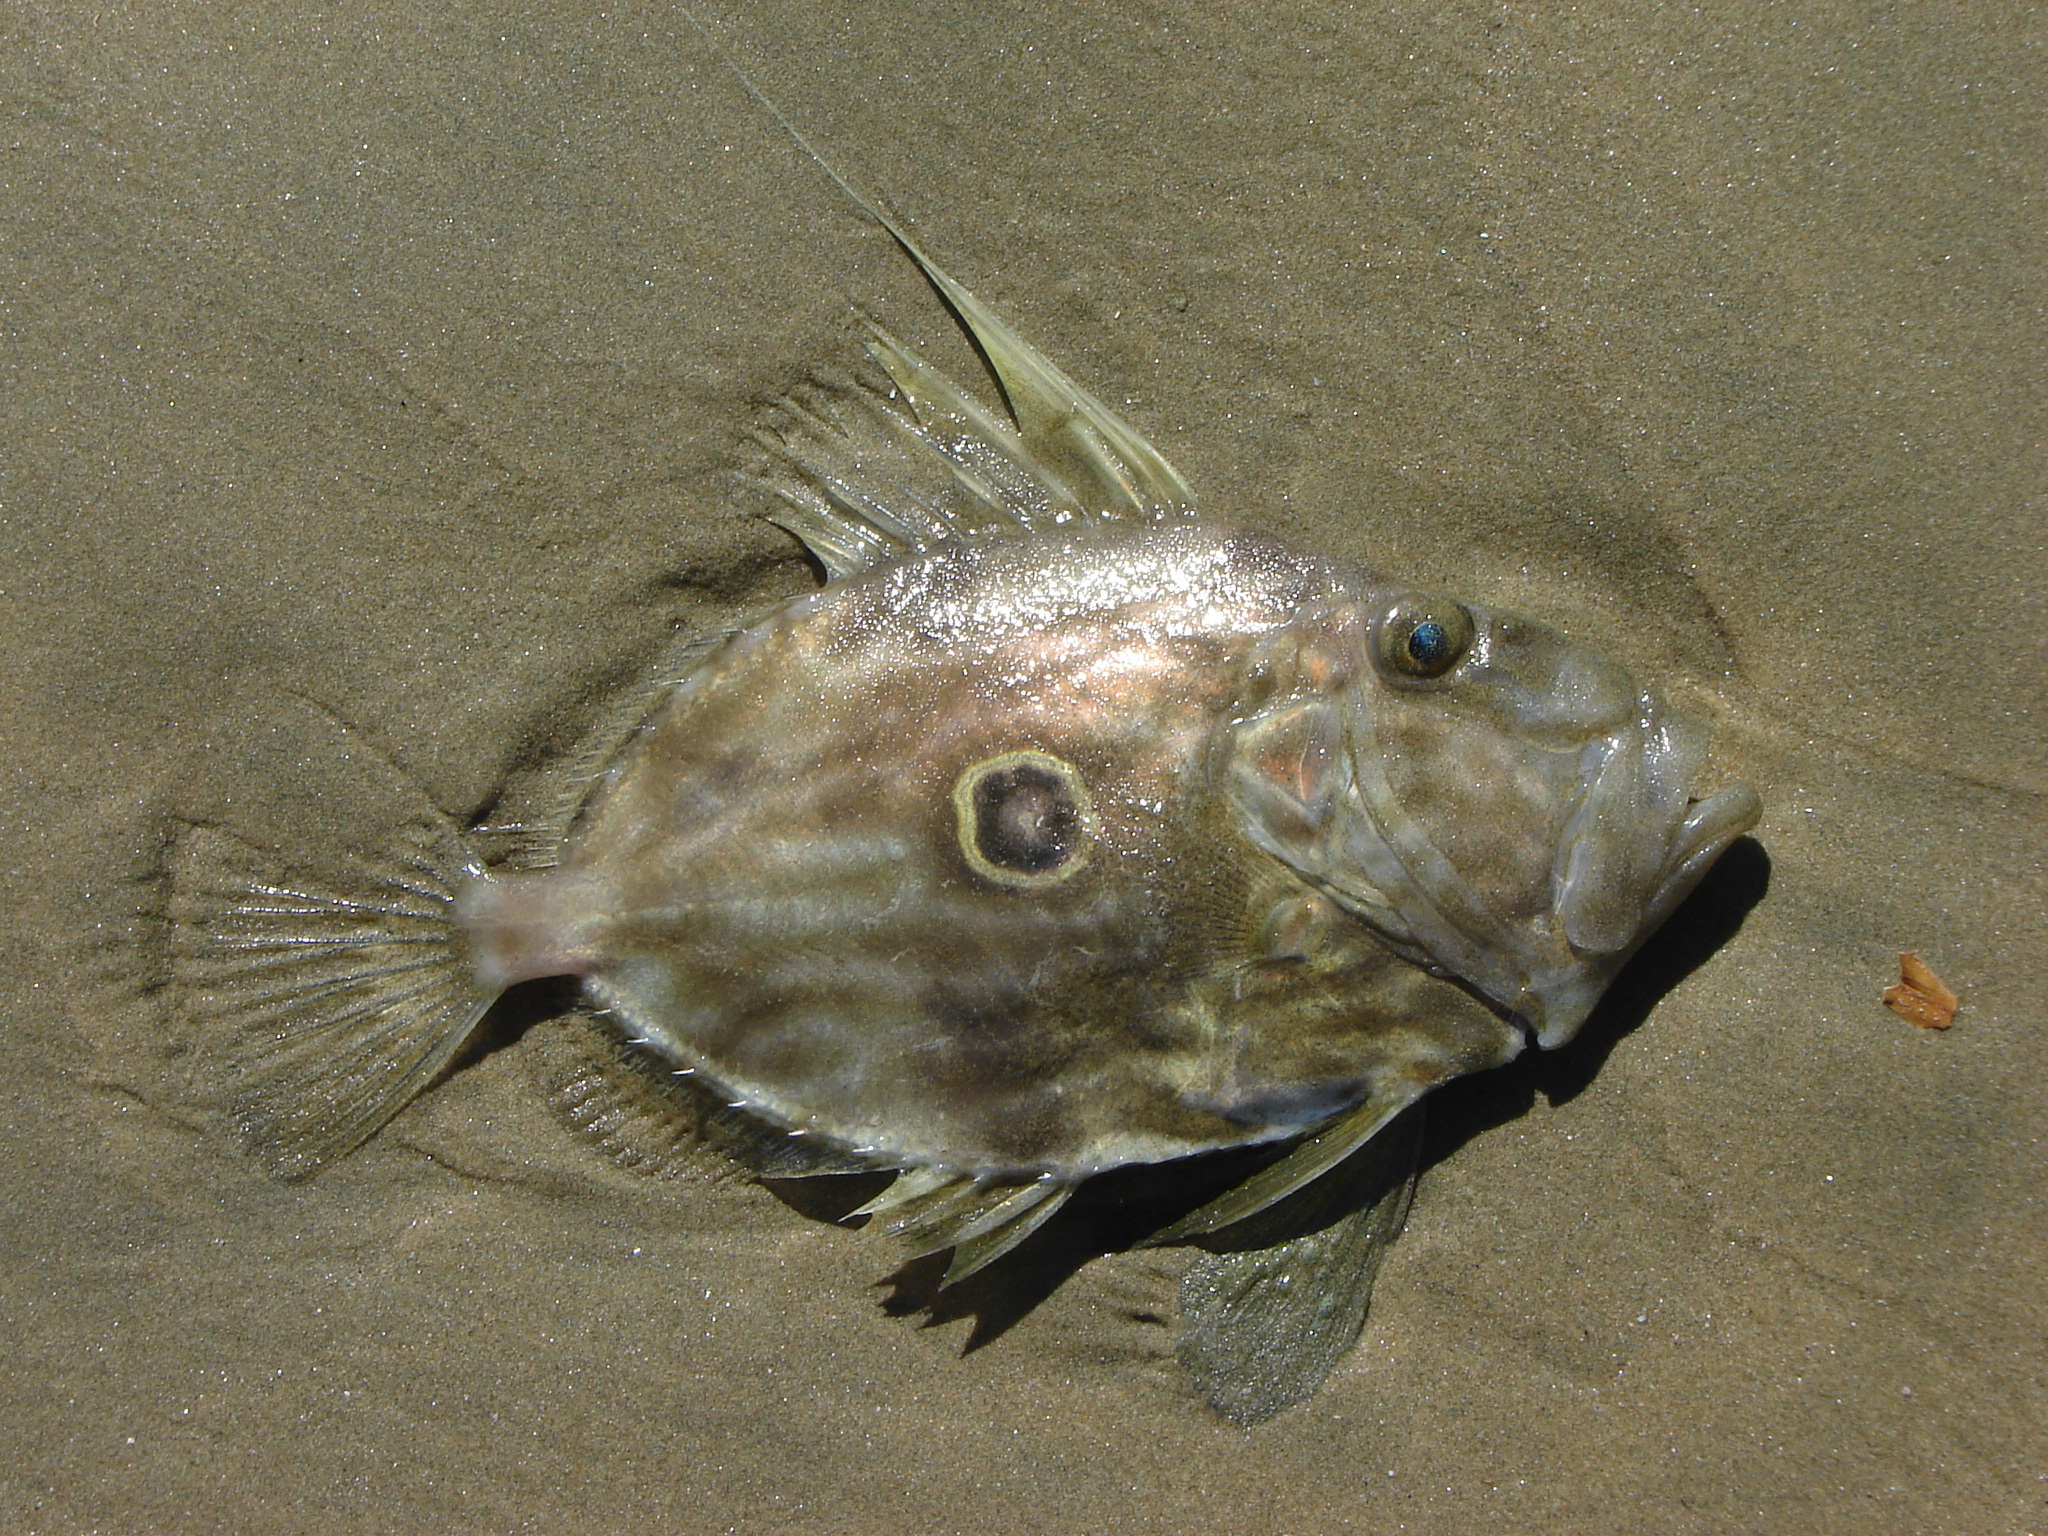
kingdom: Animalia
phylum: Chordata
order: Zeiformes
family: Zeidae
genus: Zeus
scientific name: Zeus faber
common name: John dory
